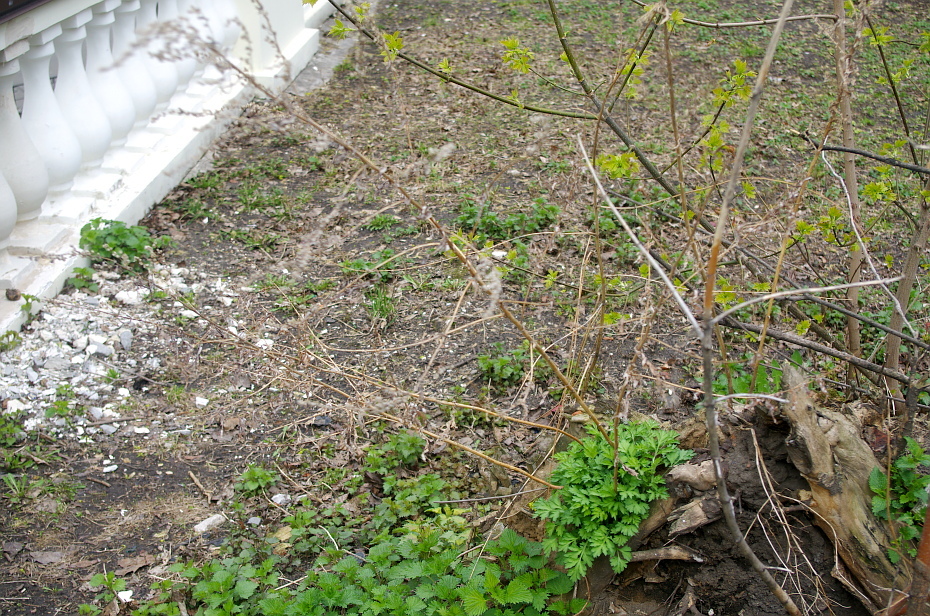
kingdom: Plantae
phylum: Tracheophyta
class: Magnoliopsida
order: Asterales
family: Asteraceae
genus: Artemisia
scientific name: Artemisia vulgaris
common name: Mugwort
